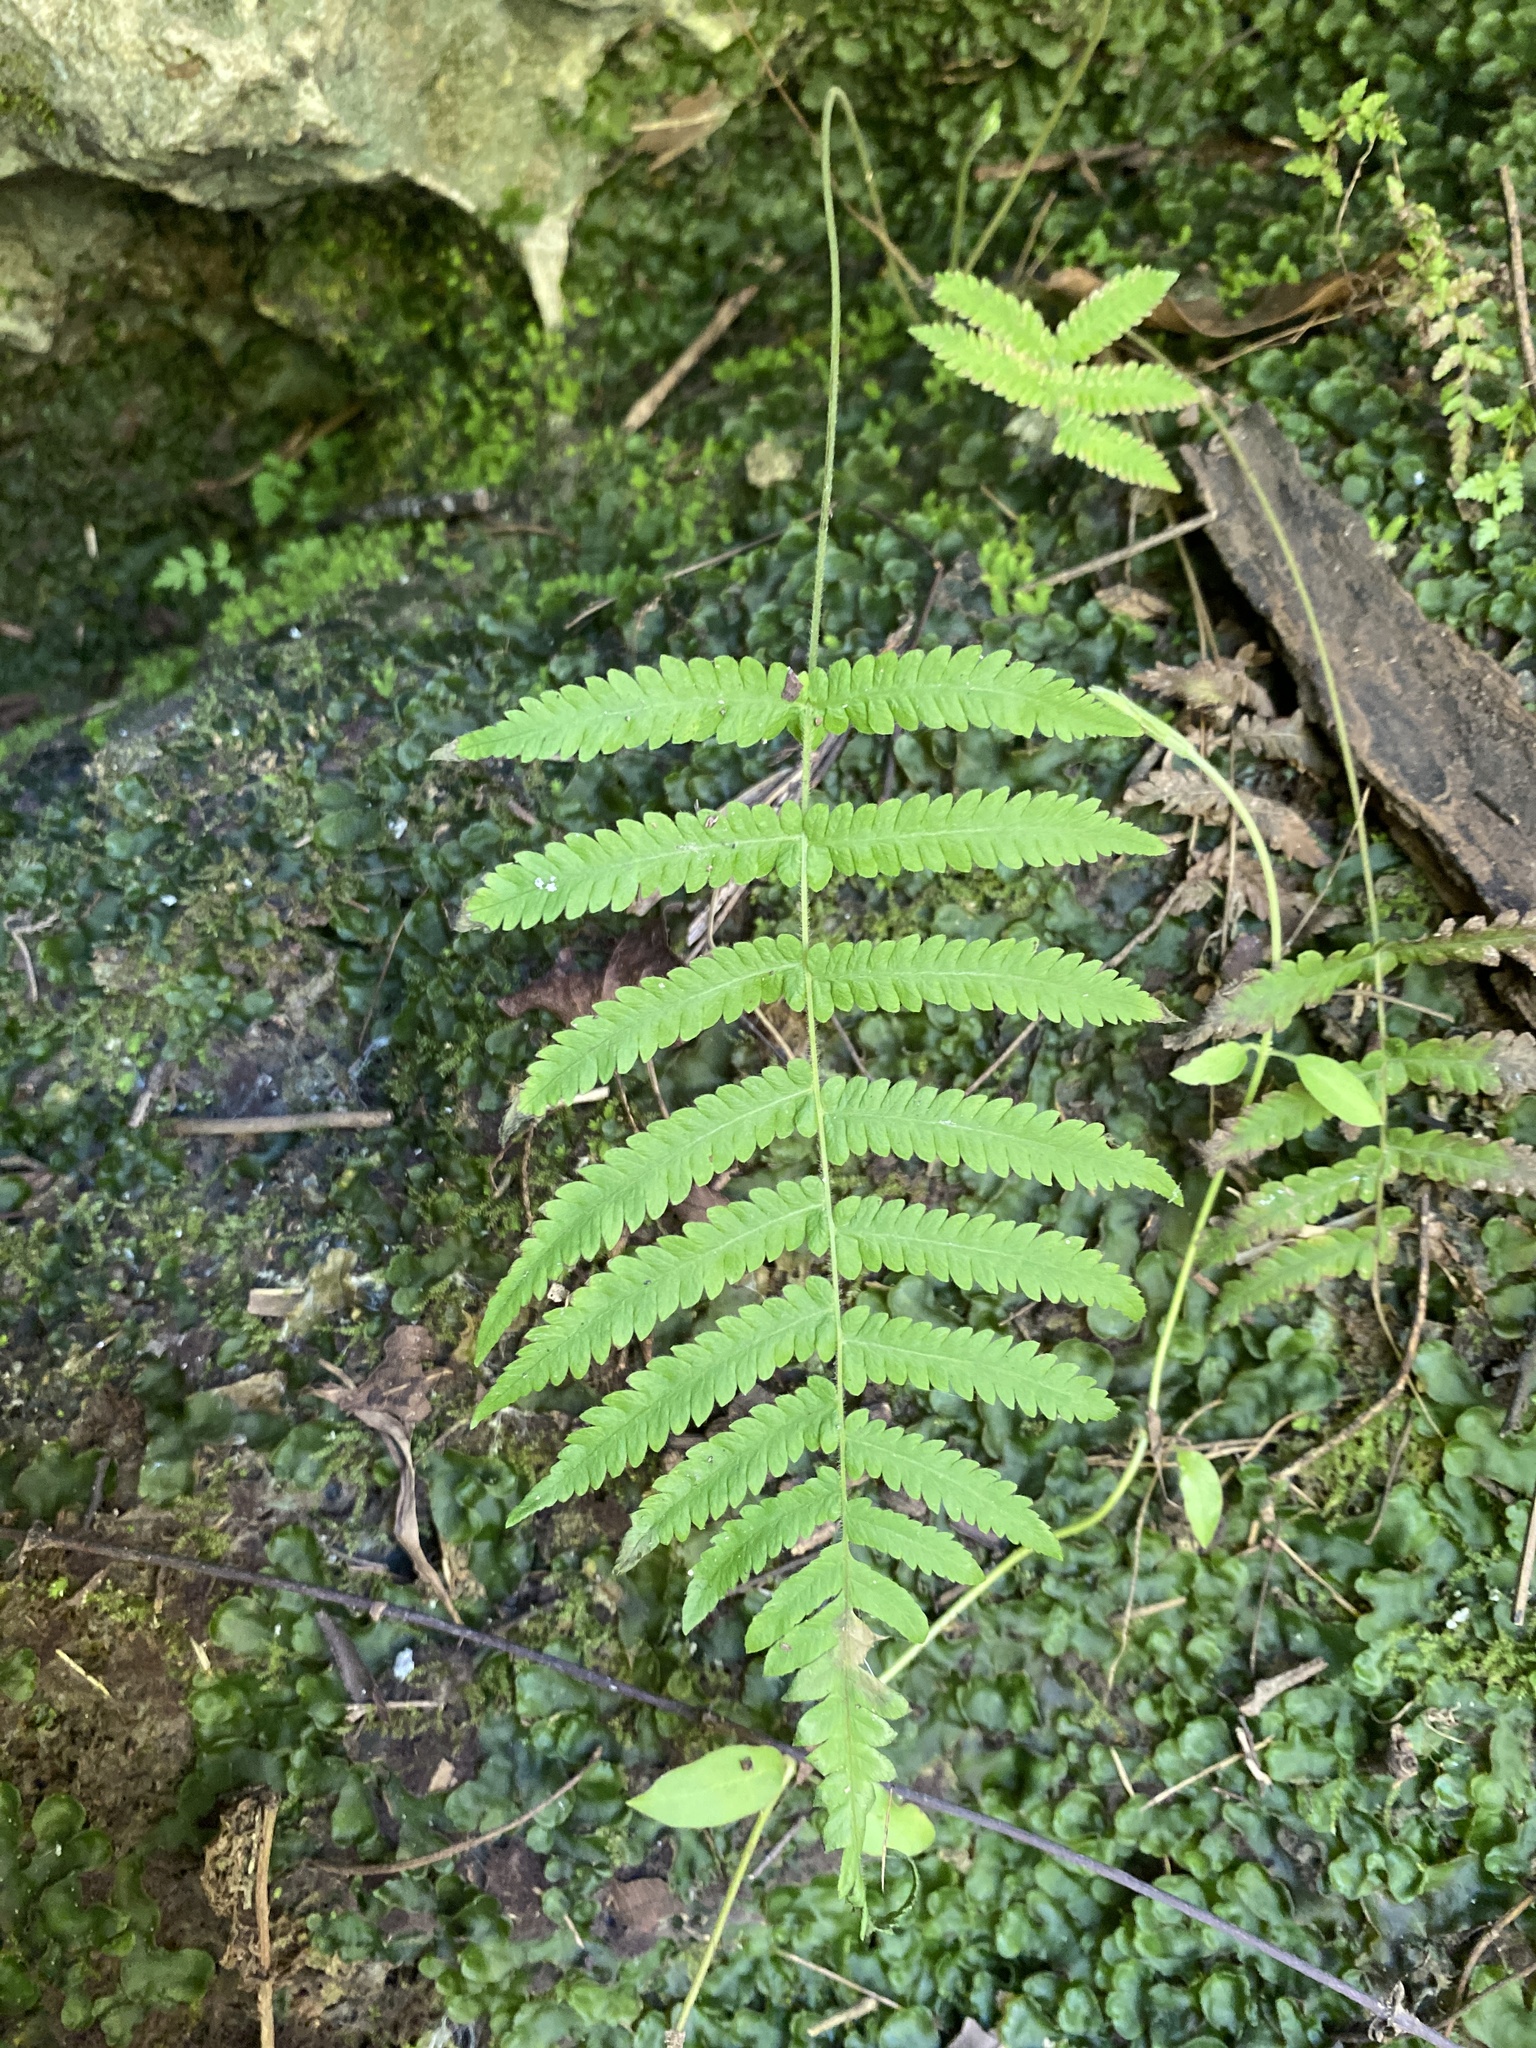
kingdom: Plantae
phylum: Tracheophyta
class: Polypodiopsida
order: Polypodiales
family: Thelypteridaceae
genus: Pelazoneuron
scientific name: Pelazoneuron kunthii
